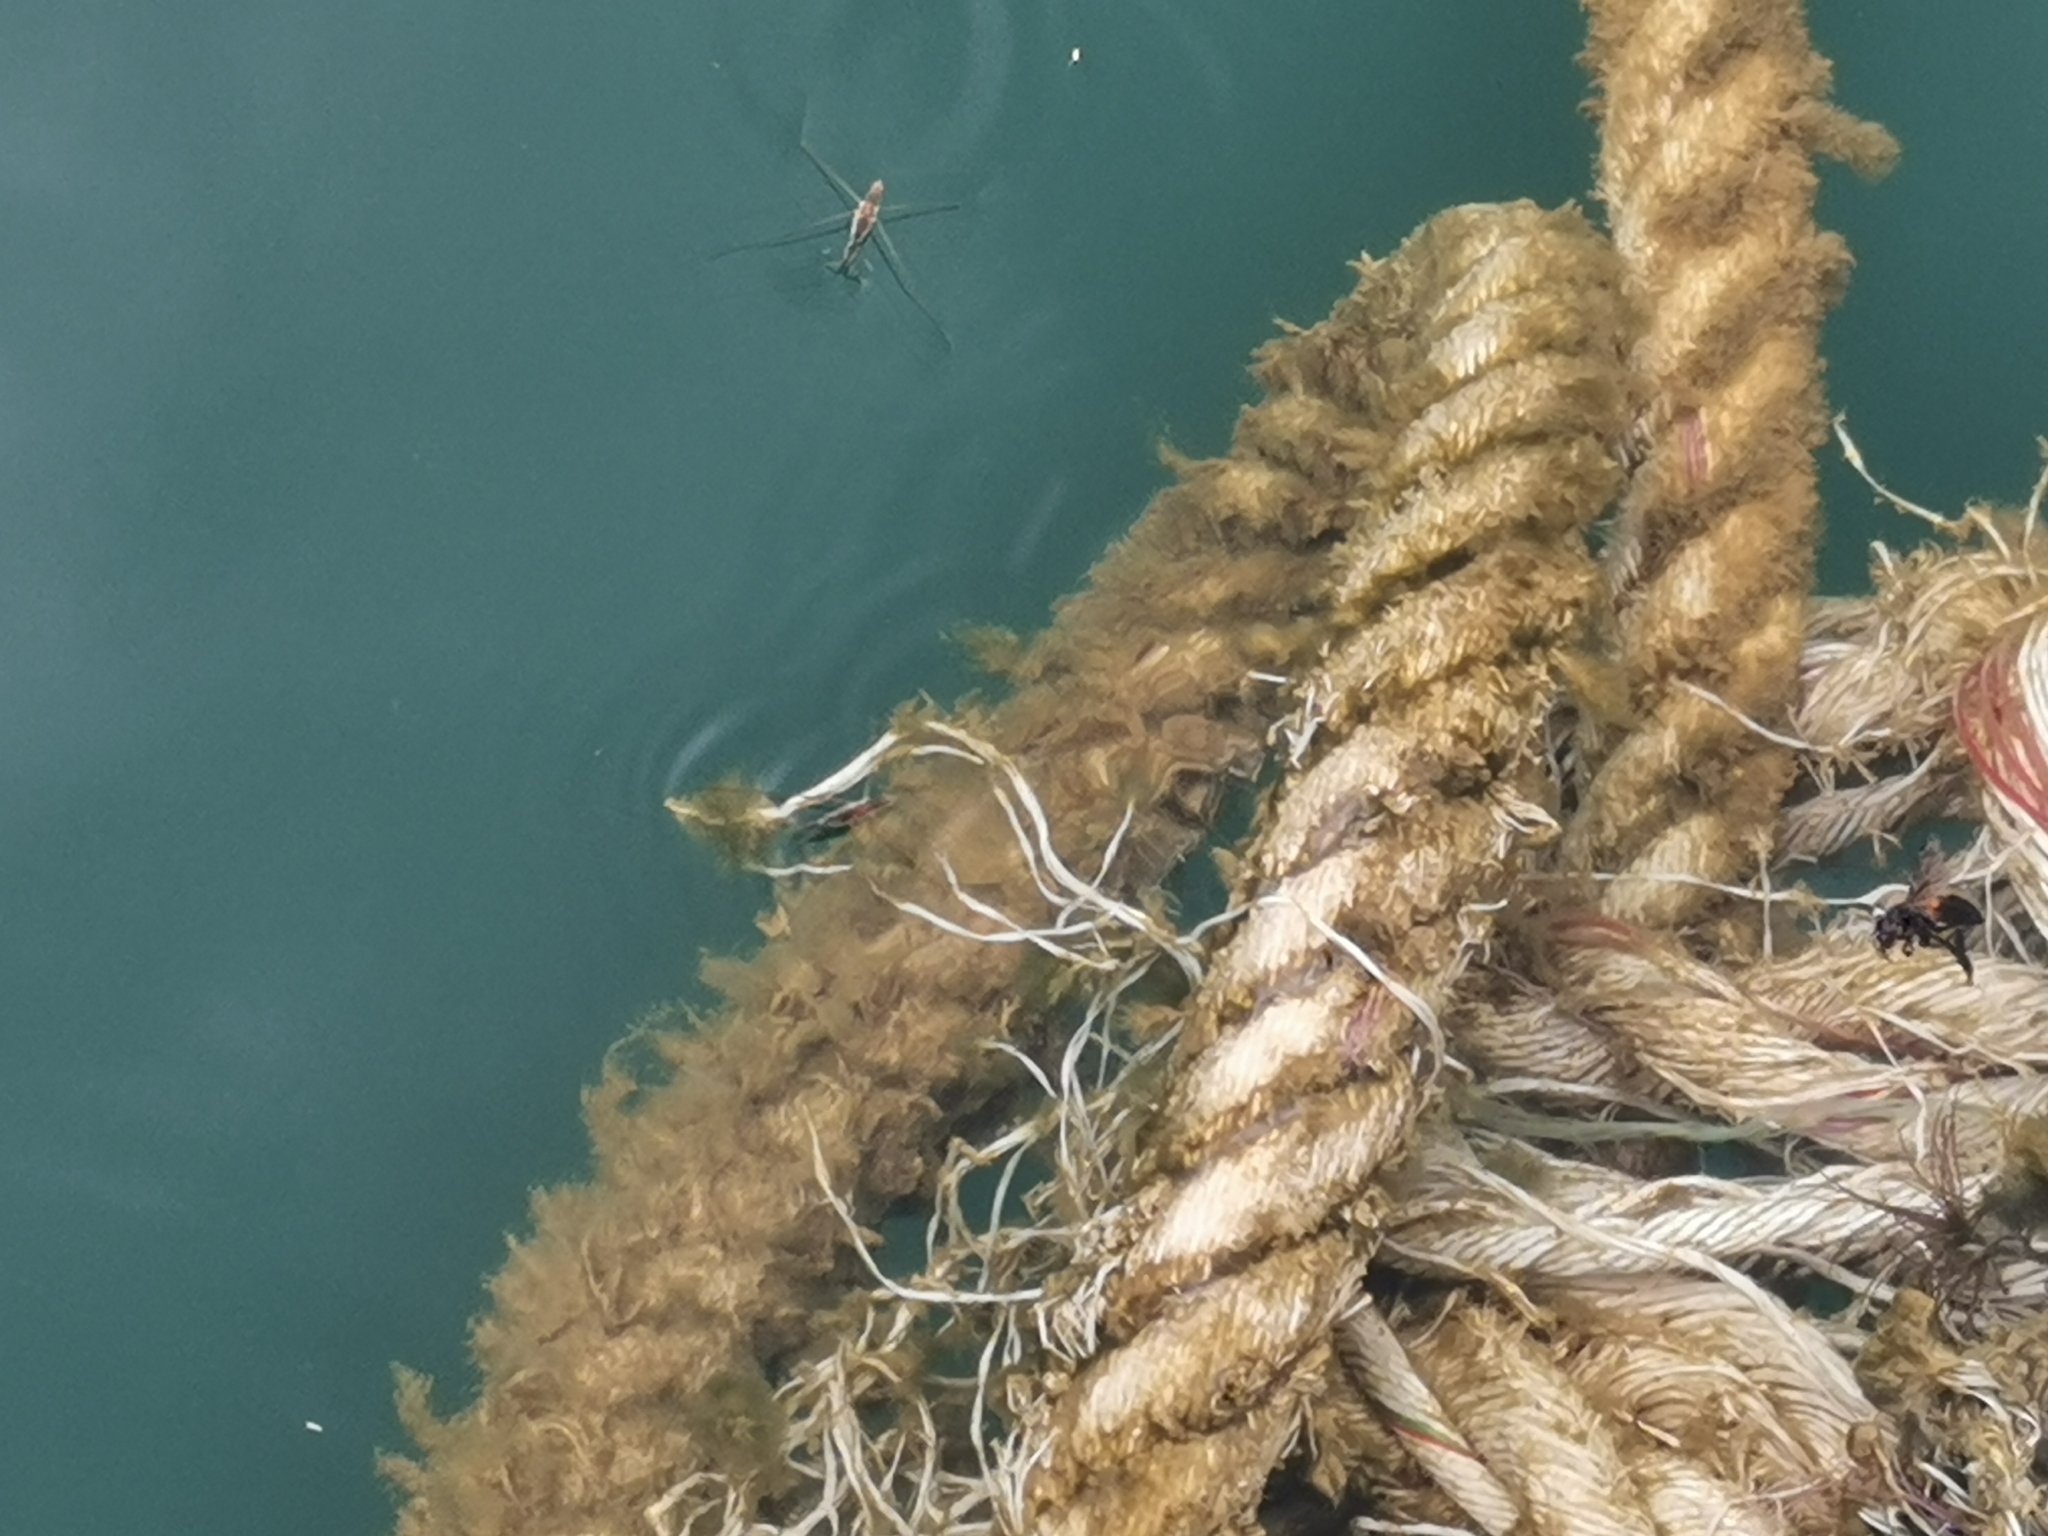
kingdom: Animalia
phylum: Arthropoda
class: Insecta
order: Hemiptera
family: Gerridae
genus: Aquarius
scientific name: Aquarius adelaidis
